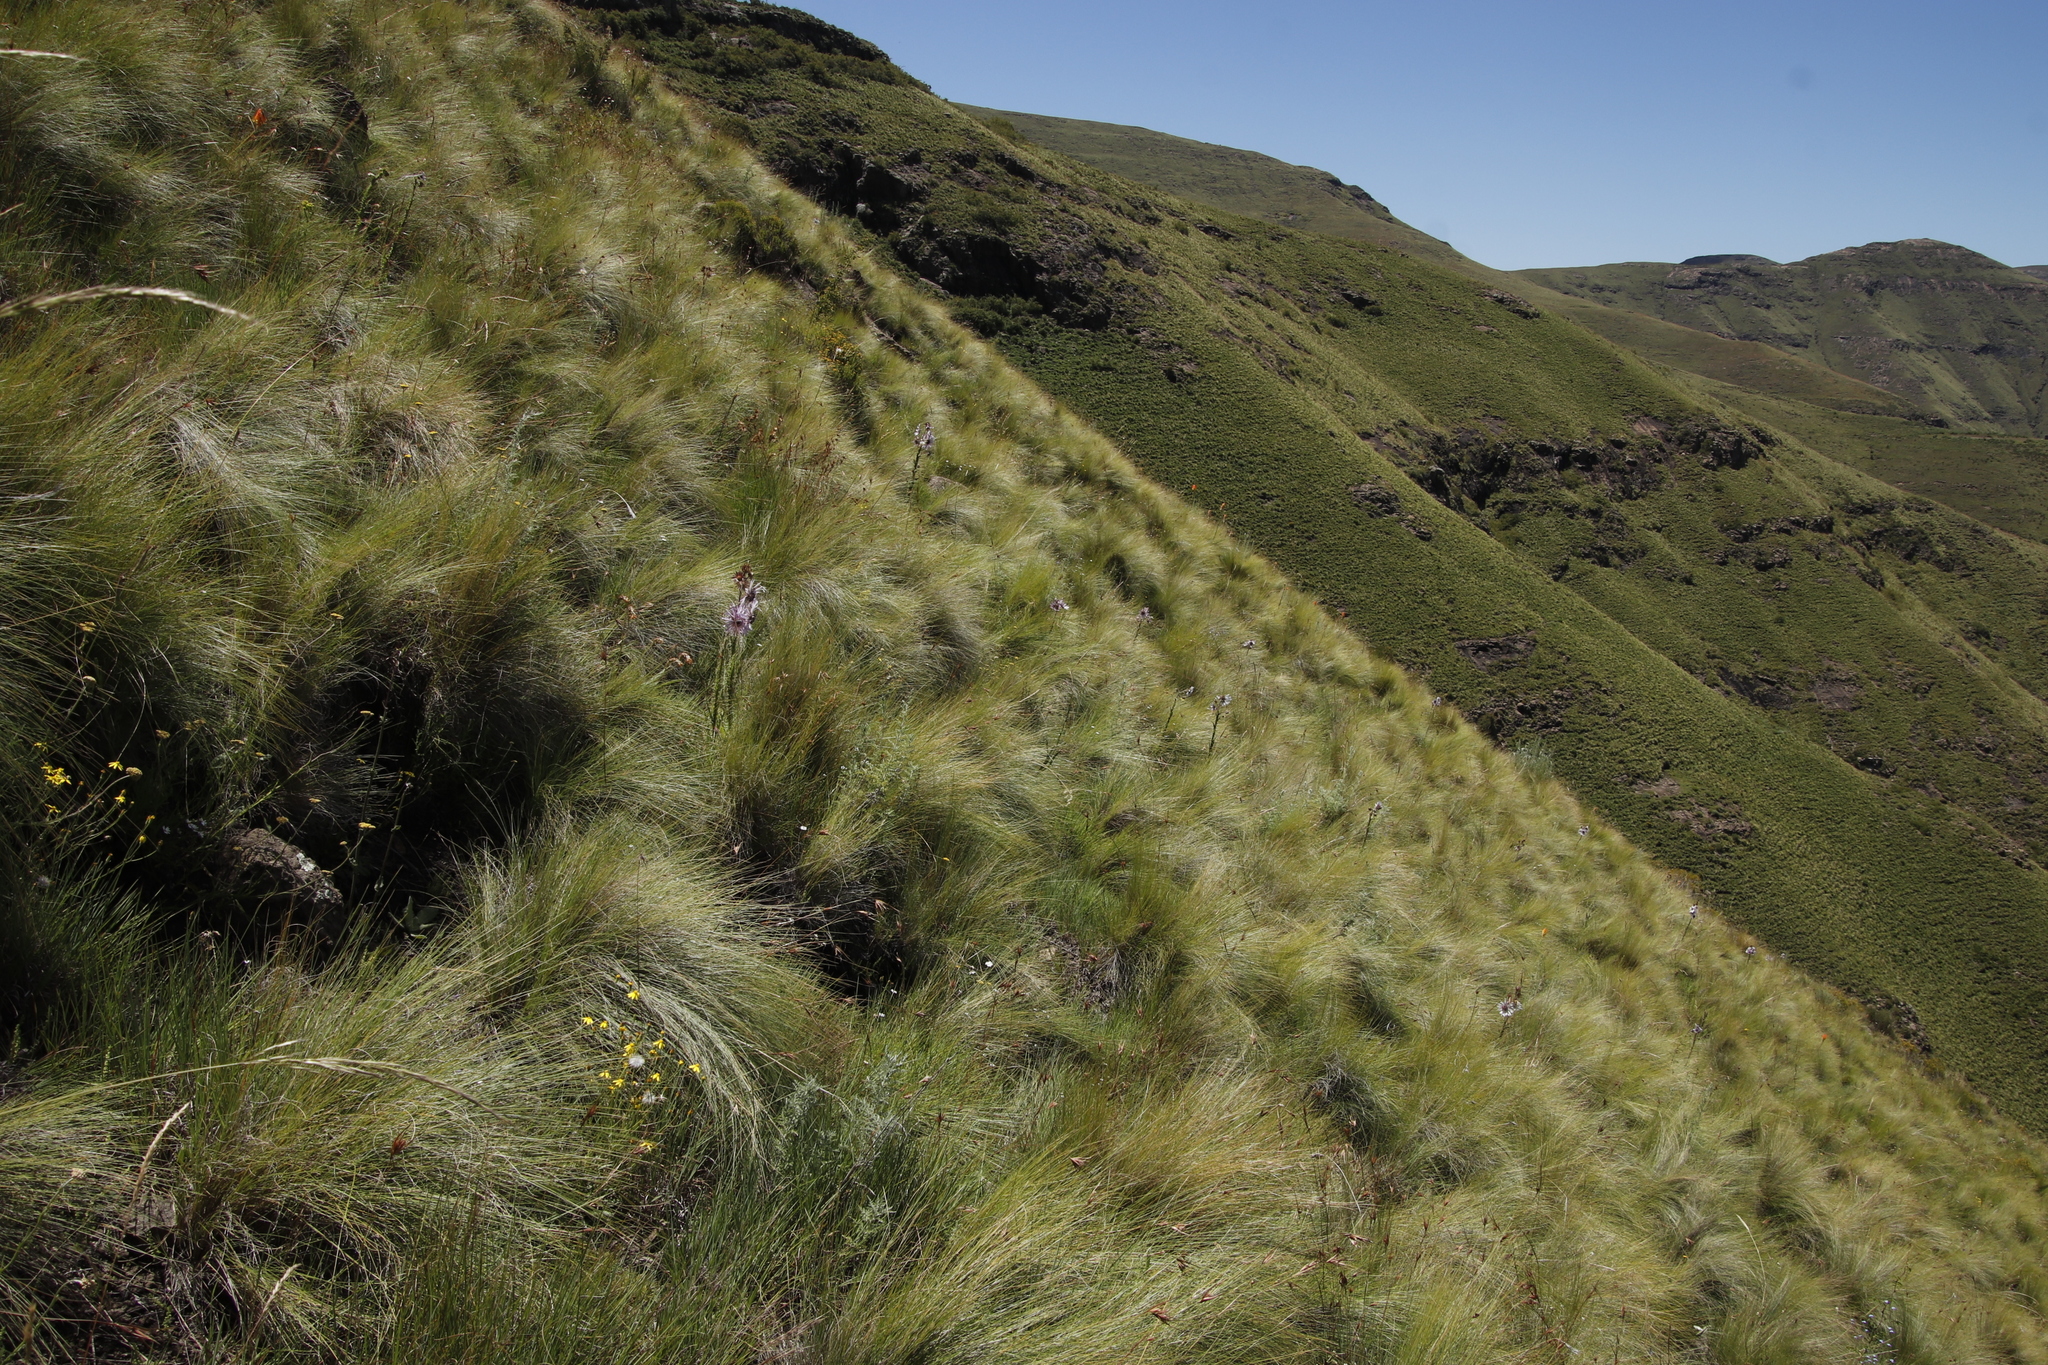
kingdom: Plantae
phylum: Tracheophyta
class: Magnoliopsida
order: Asterales
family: Asteraceae
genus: Berkheya
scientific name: Berkheya purpurea
